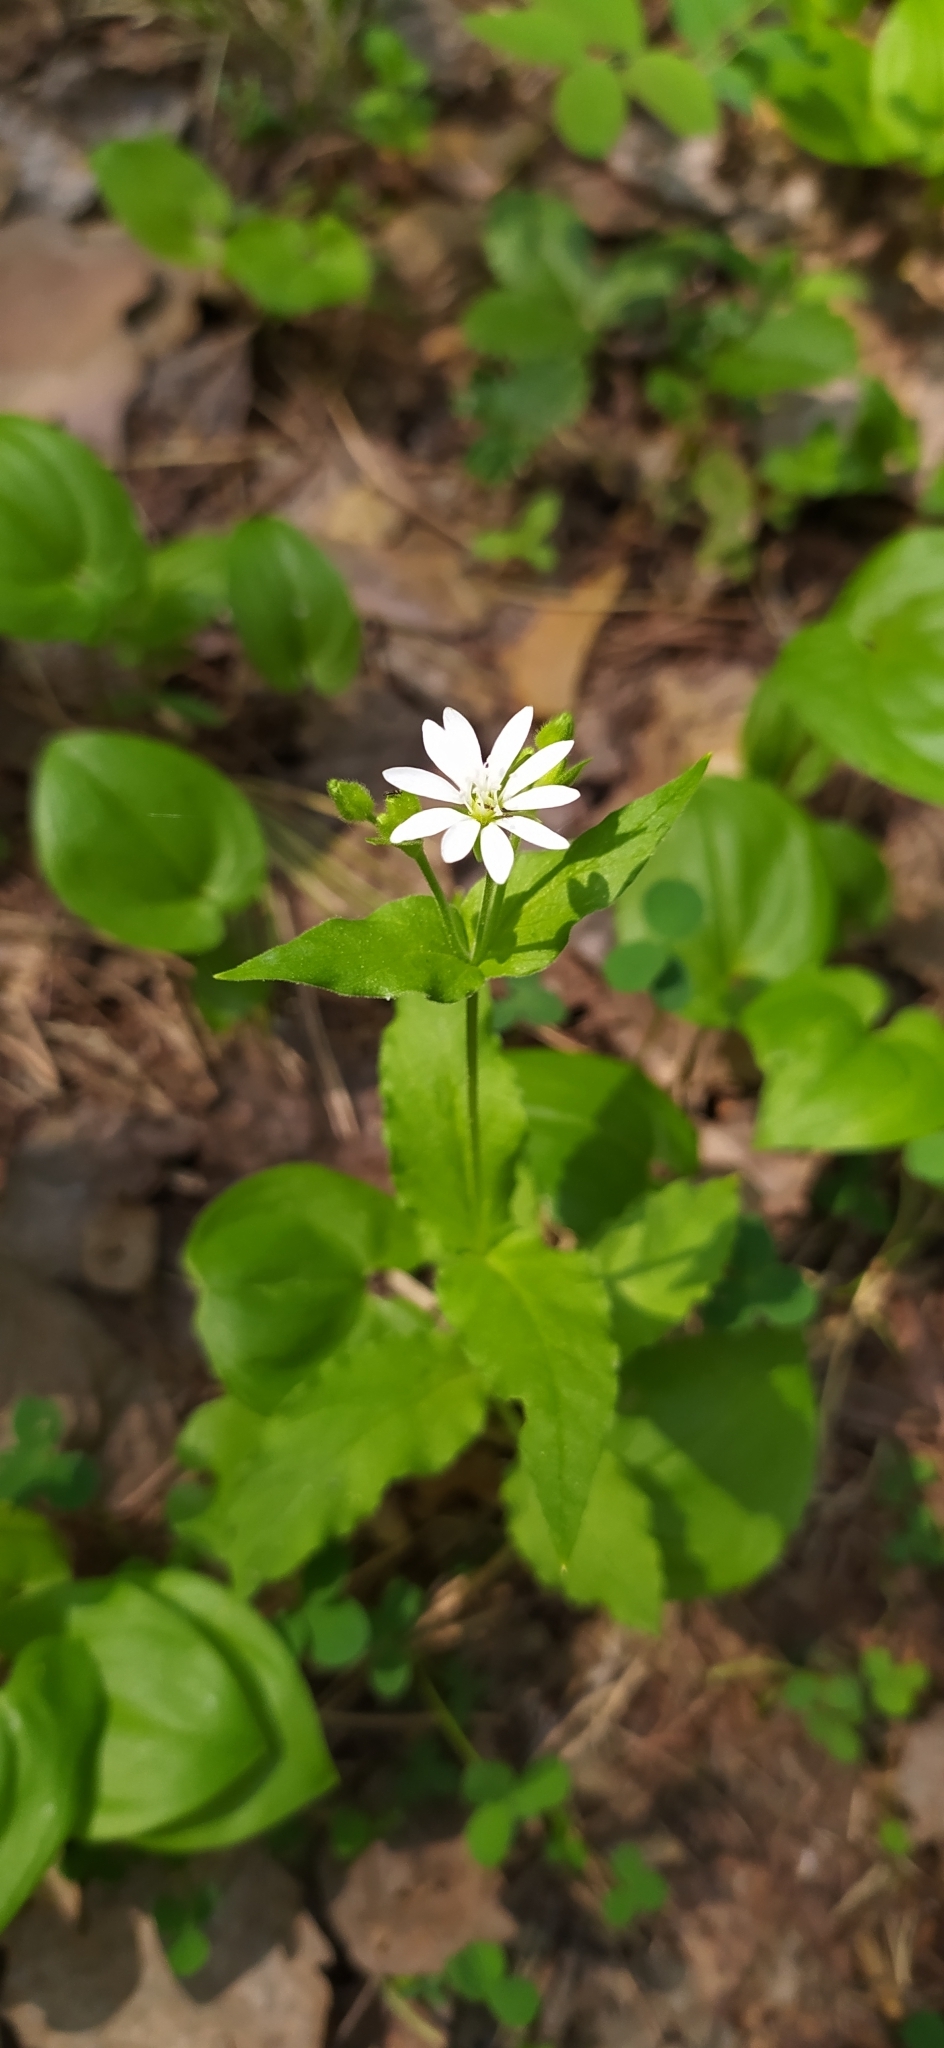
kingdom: Plantae
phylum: Tracheophyta
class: Magnoliopsida
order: Caryophyllales
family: Caryophyllaceae
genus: Stellaria
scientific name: Stellaria bungeana
